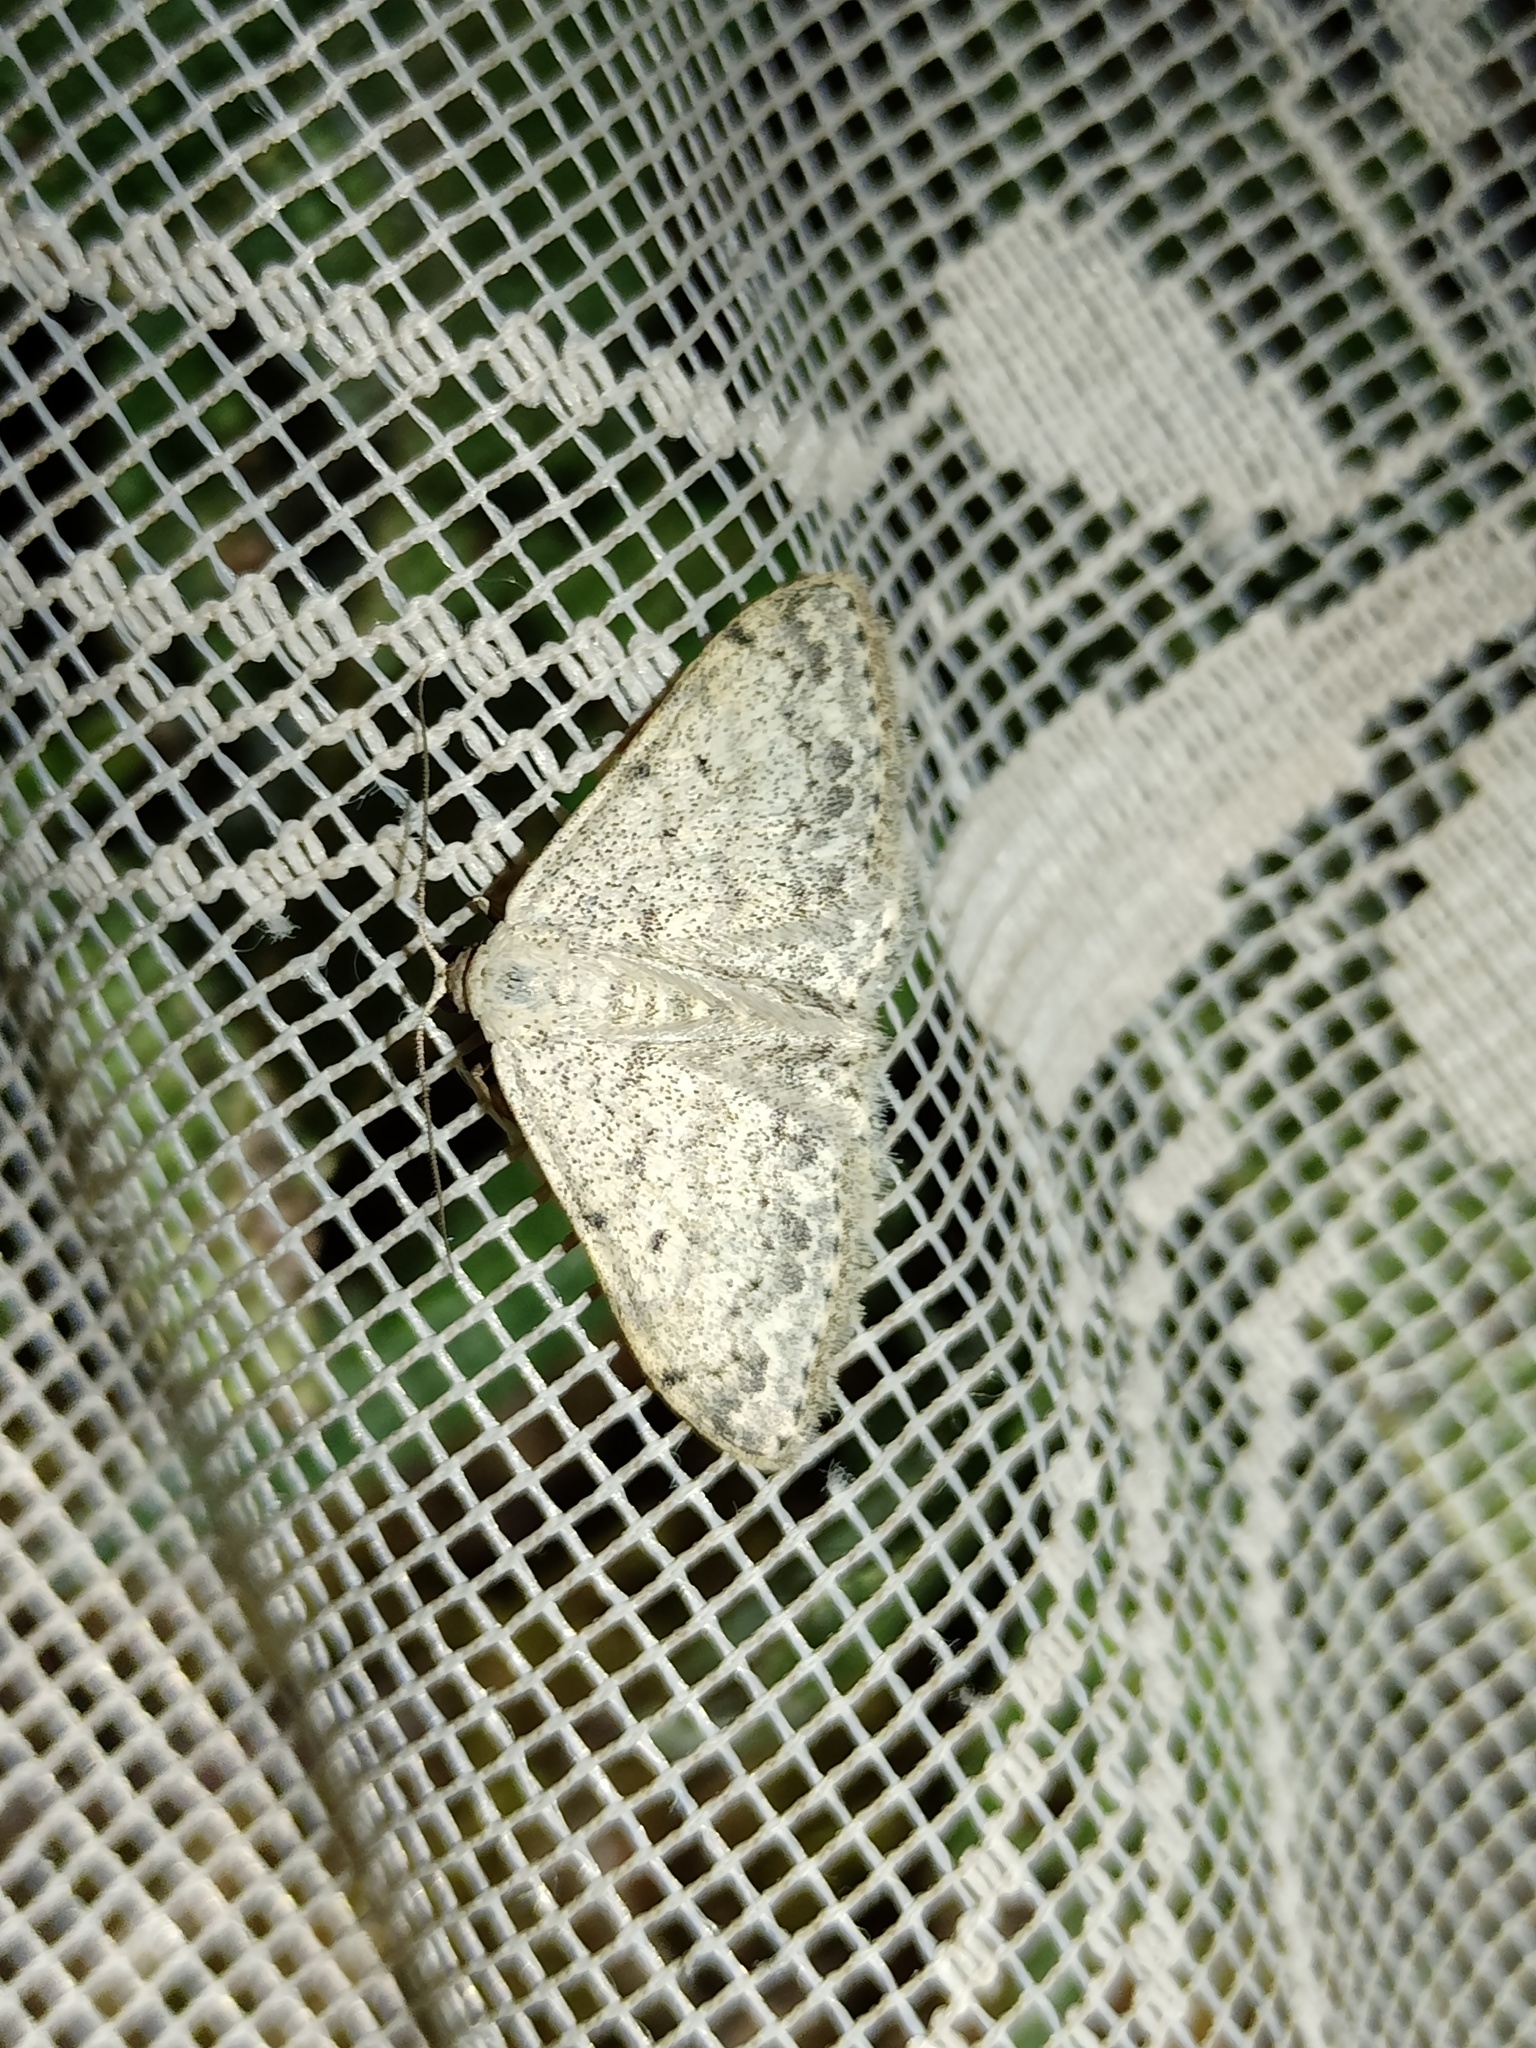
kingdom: Animalia
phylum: Arthropoda
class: Insecta
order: Lepidoptera
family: Geometridae
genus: Scopula
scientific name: Scopula marginepunctata
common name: Mullein wave
